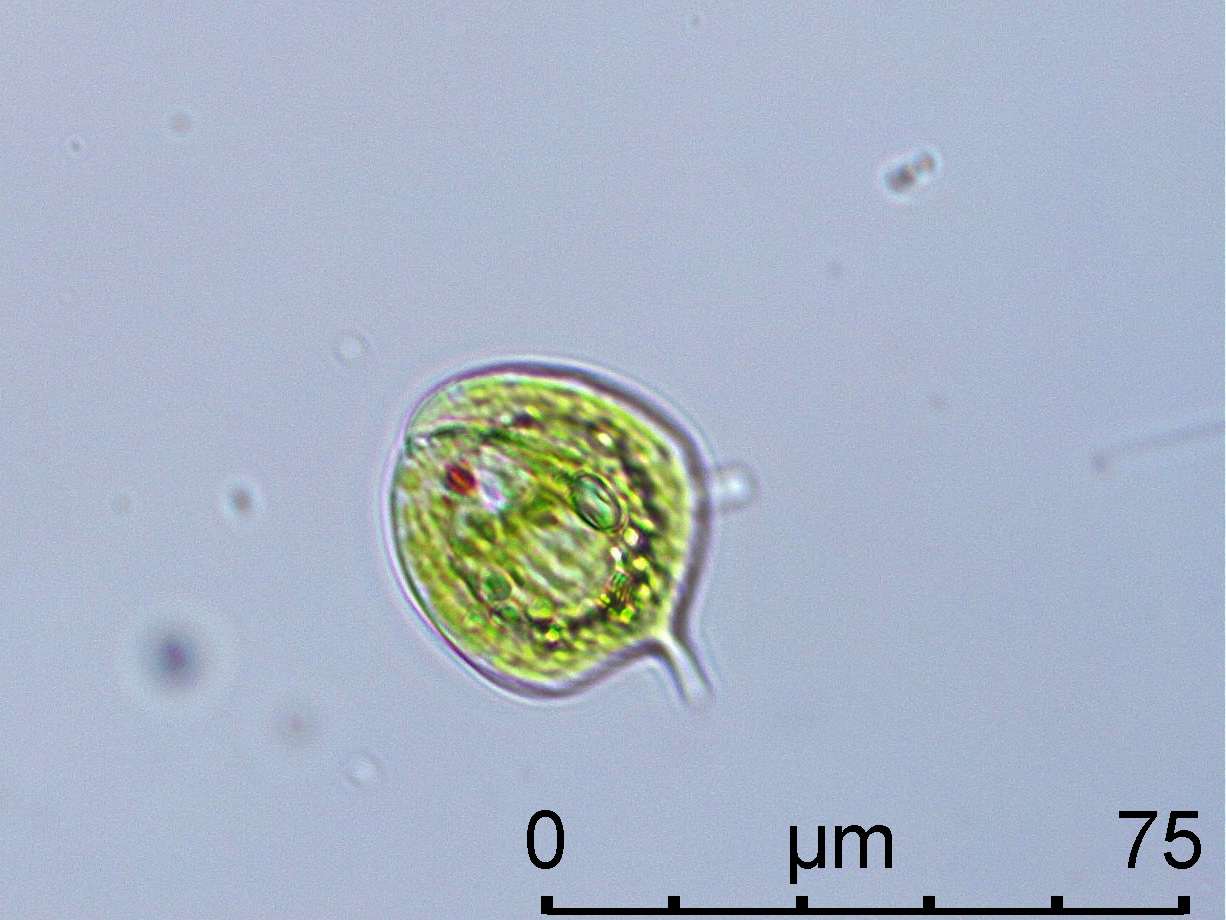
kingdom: Protozoa
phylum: Euglenozoa
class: Euglenoidea
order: Euglenida
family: Phacidae
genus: Phacus
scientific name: Phacus triqueter
